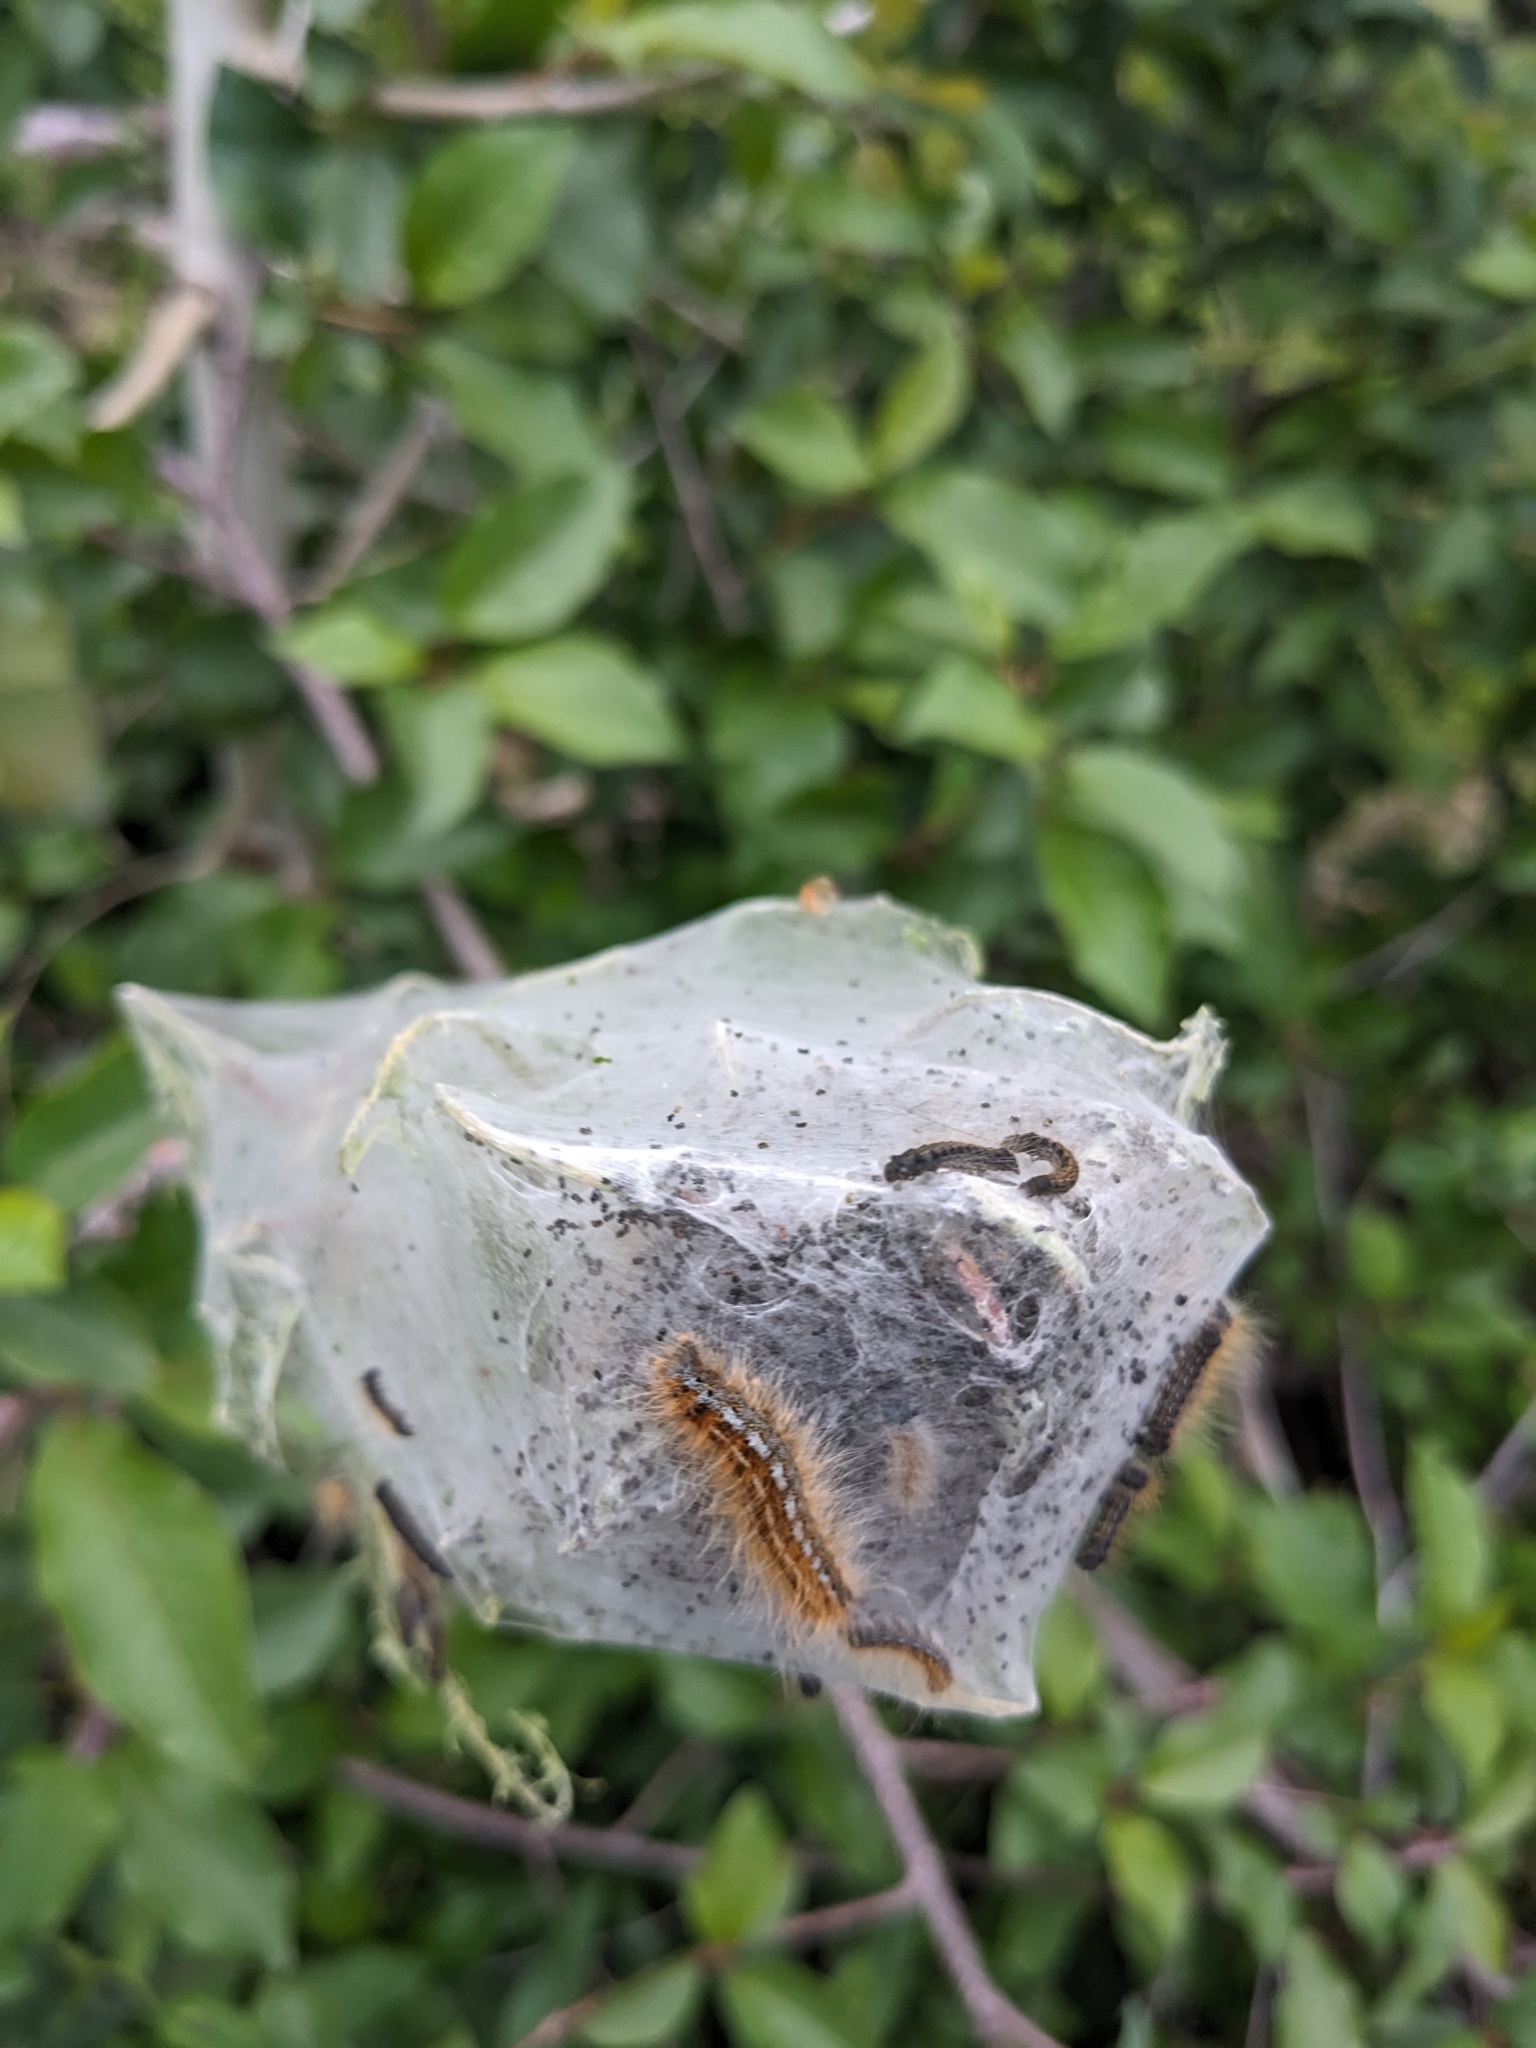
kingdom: Animalia
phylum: Arthropoda
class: Insecta
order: Lepidoptera
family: Lasiocampidae
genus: Malacosoma
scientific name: Malacosoma californica
